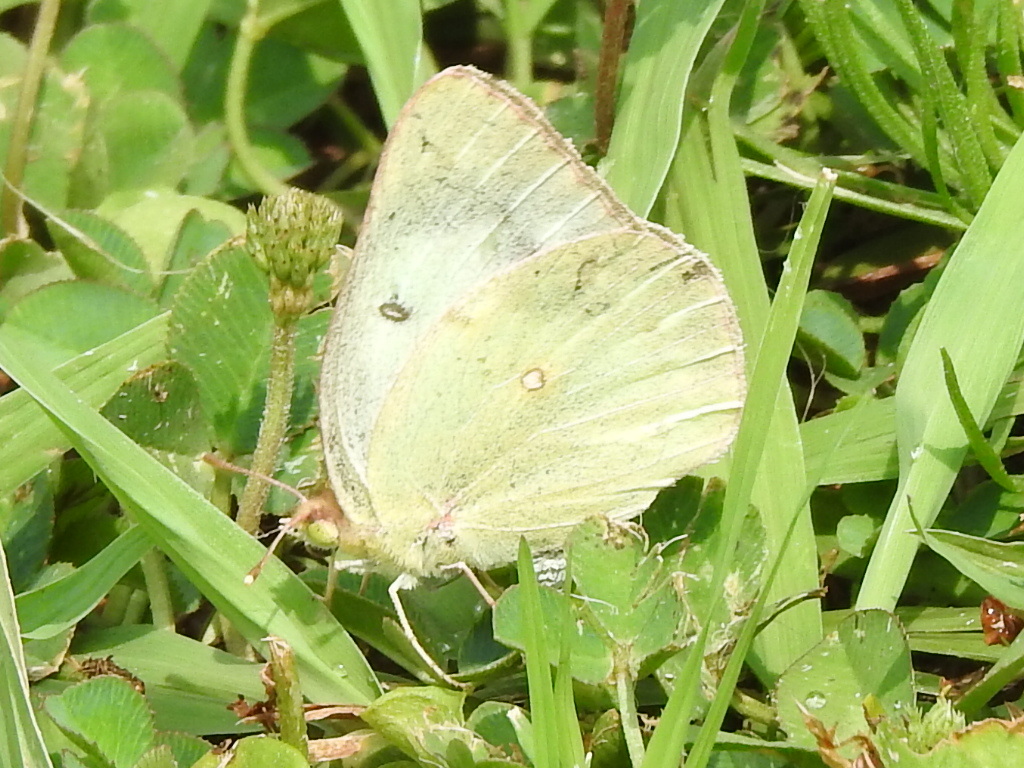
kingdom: Animalia
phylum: Arthropoda
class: Insecta
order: Lepidoptera
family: Pieridae
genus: Colias
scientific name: Colias eurytheme
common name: Alfalfa butterfly
